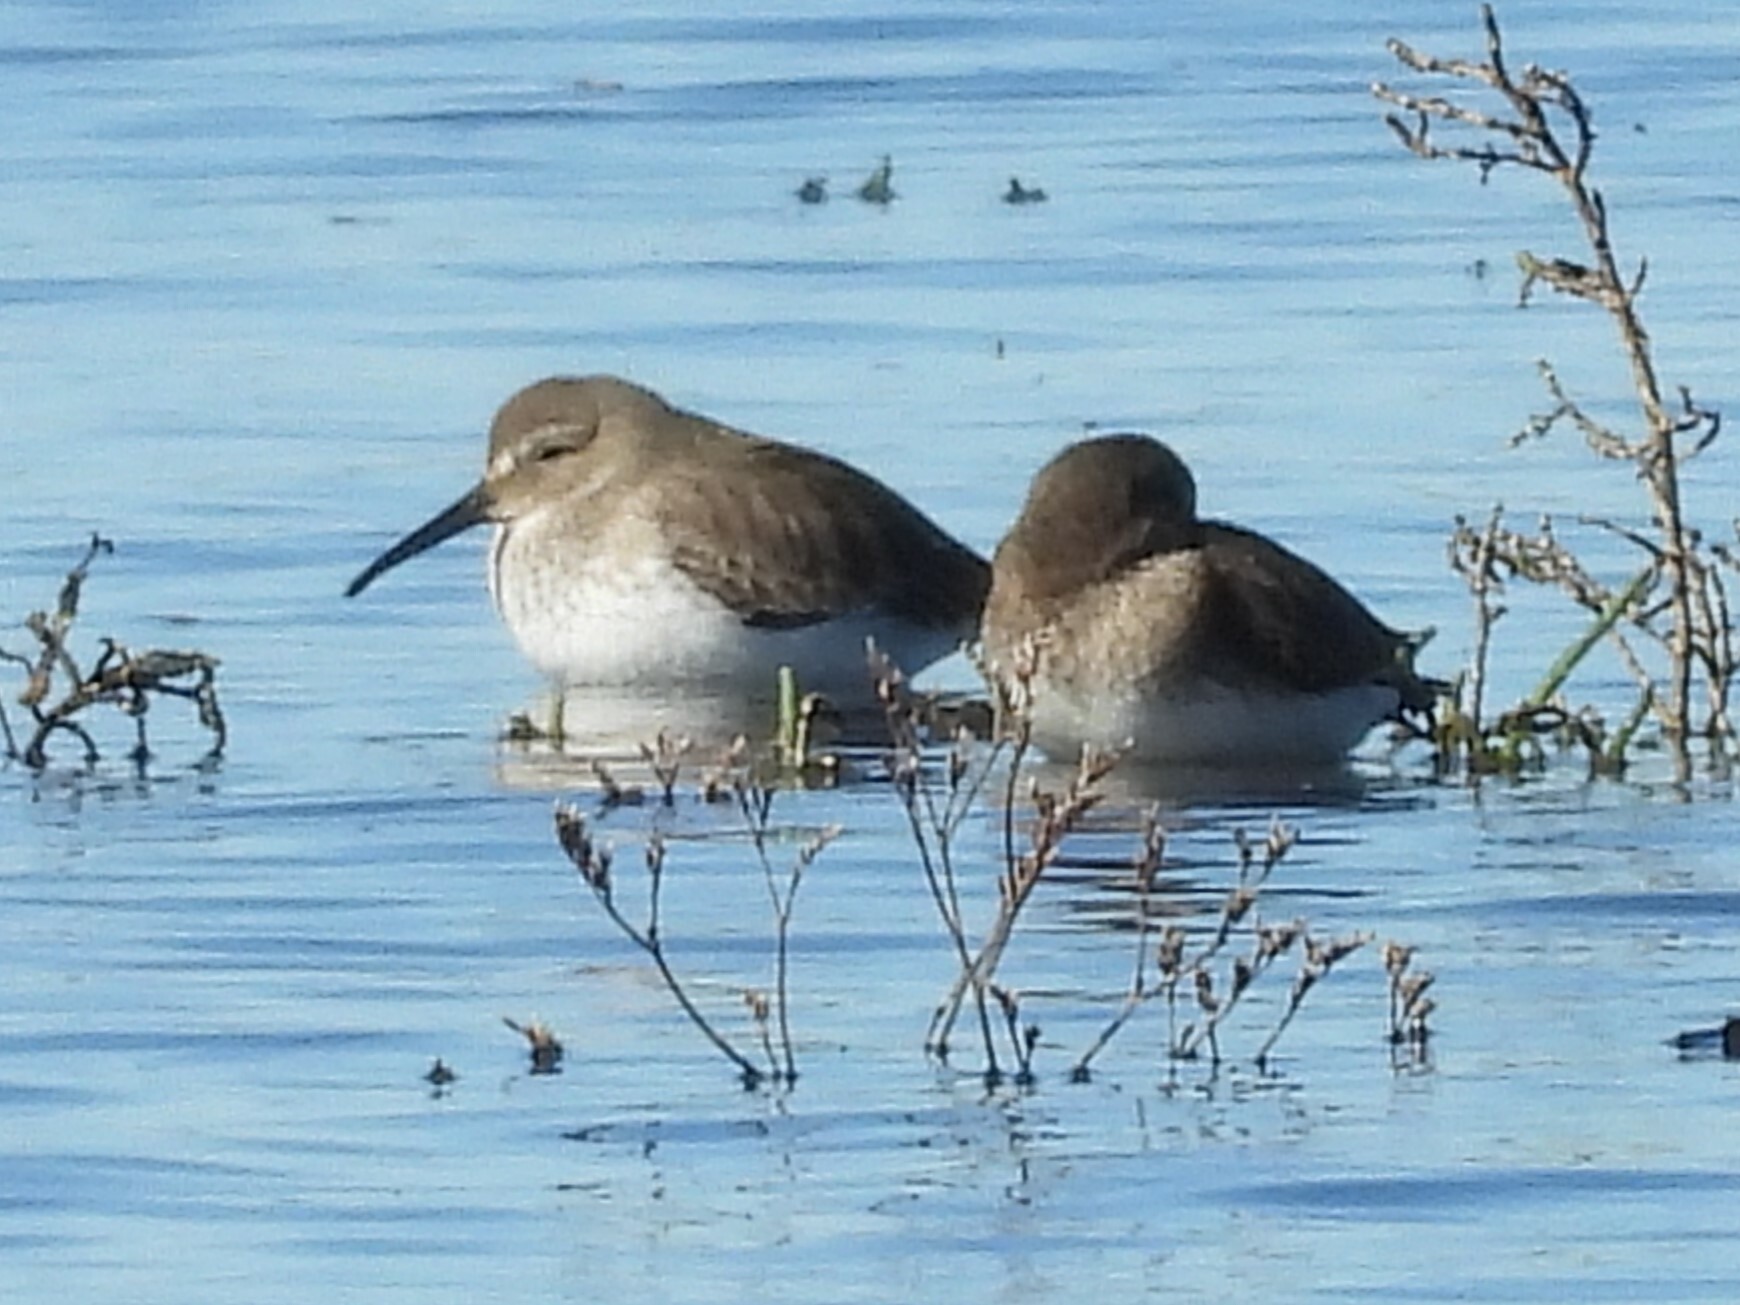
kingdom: Animalia
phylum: Chordata
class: Aves
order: Charadriiformes
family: Scolopacidae
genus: Calidris
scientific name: Calidris alpina
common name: Dunlin
